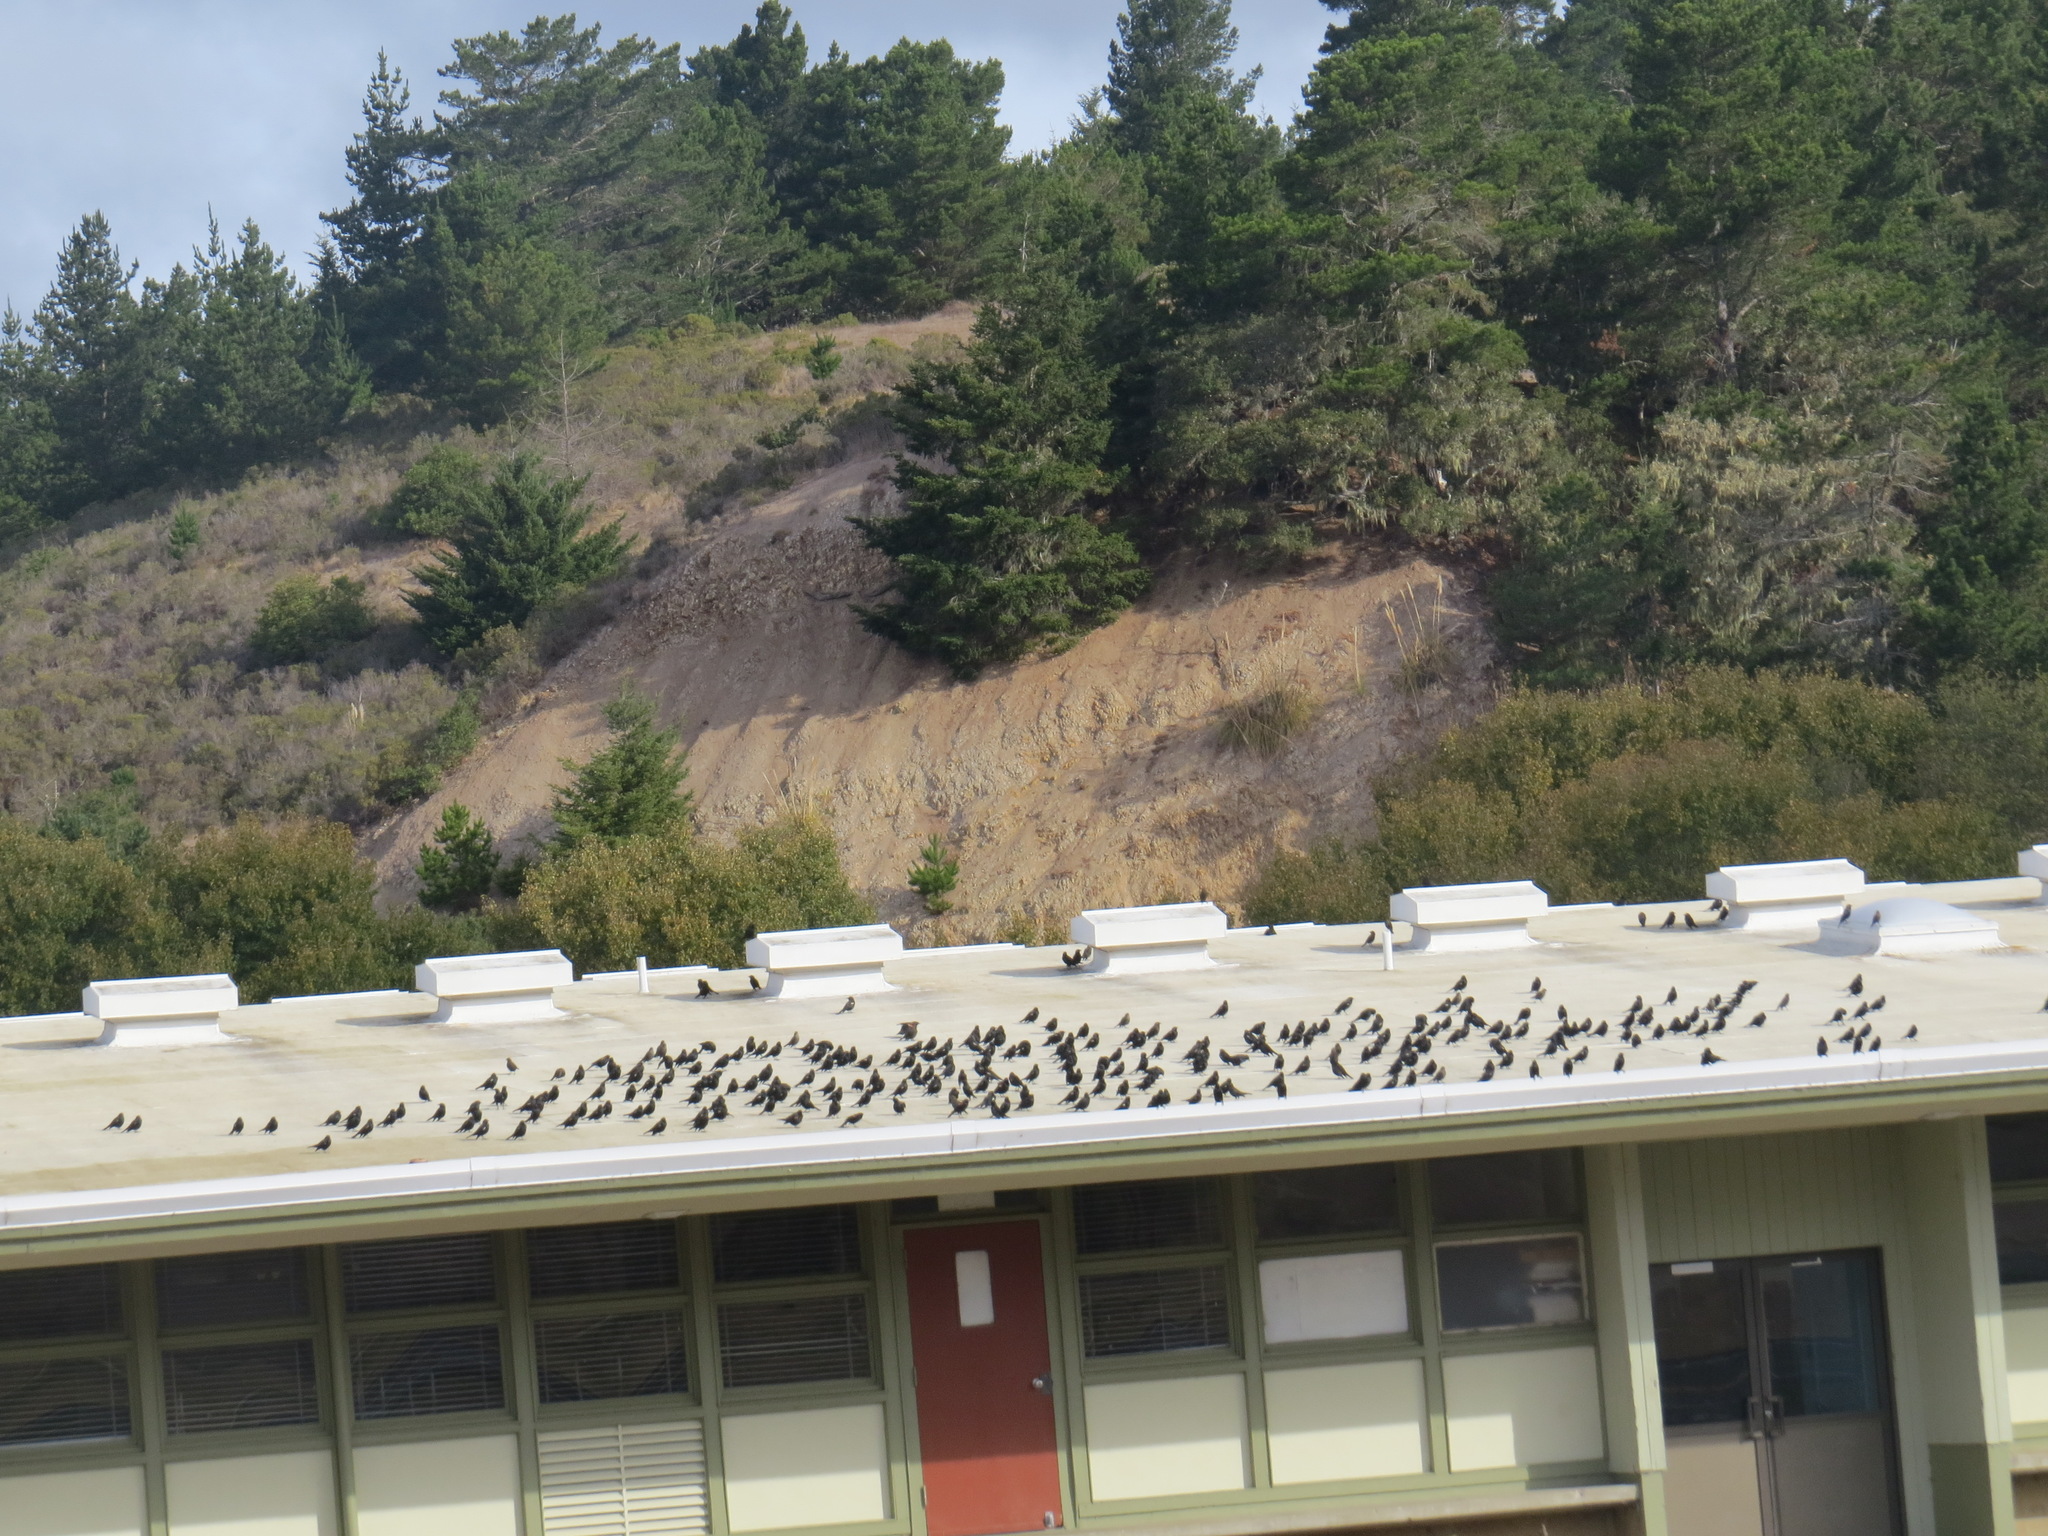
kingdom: Animalia
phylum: Chordata
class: Aves
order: Passeriformes
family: Icteridae
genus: Agelaius
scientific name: Agelaius tricolor
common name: Tricolored blackbird
